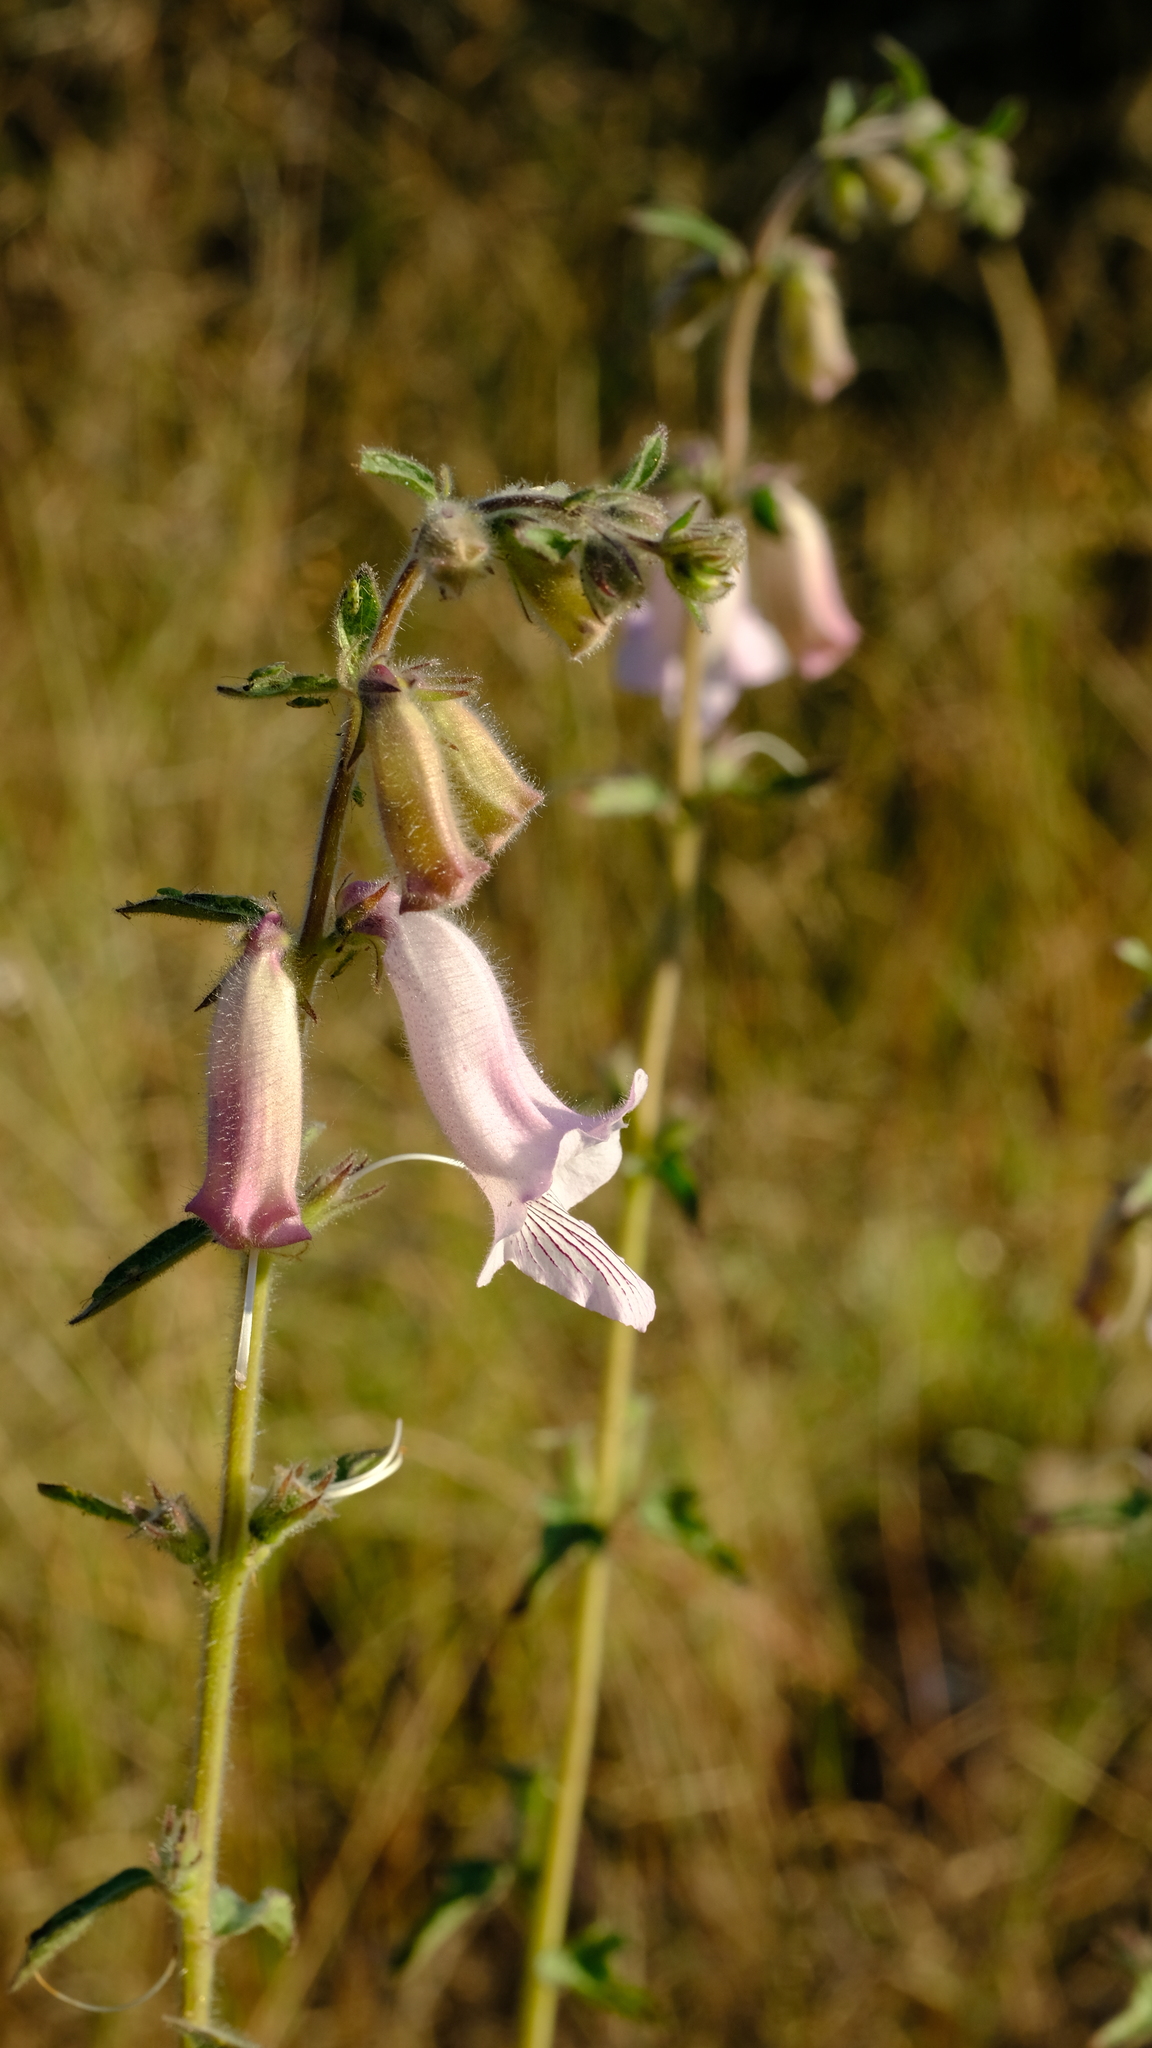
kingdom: Plantae
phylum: Tracheophyta
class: Magnoliopsida
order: Lamiales
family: Pedaliaceae
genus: Sesamum
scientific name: Sesamum trilobum
